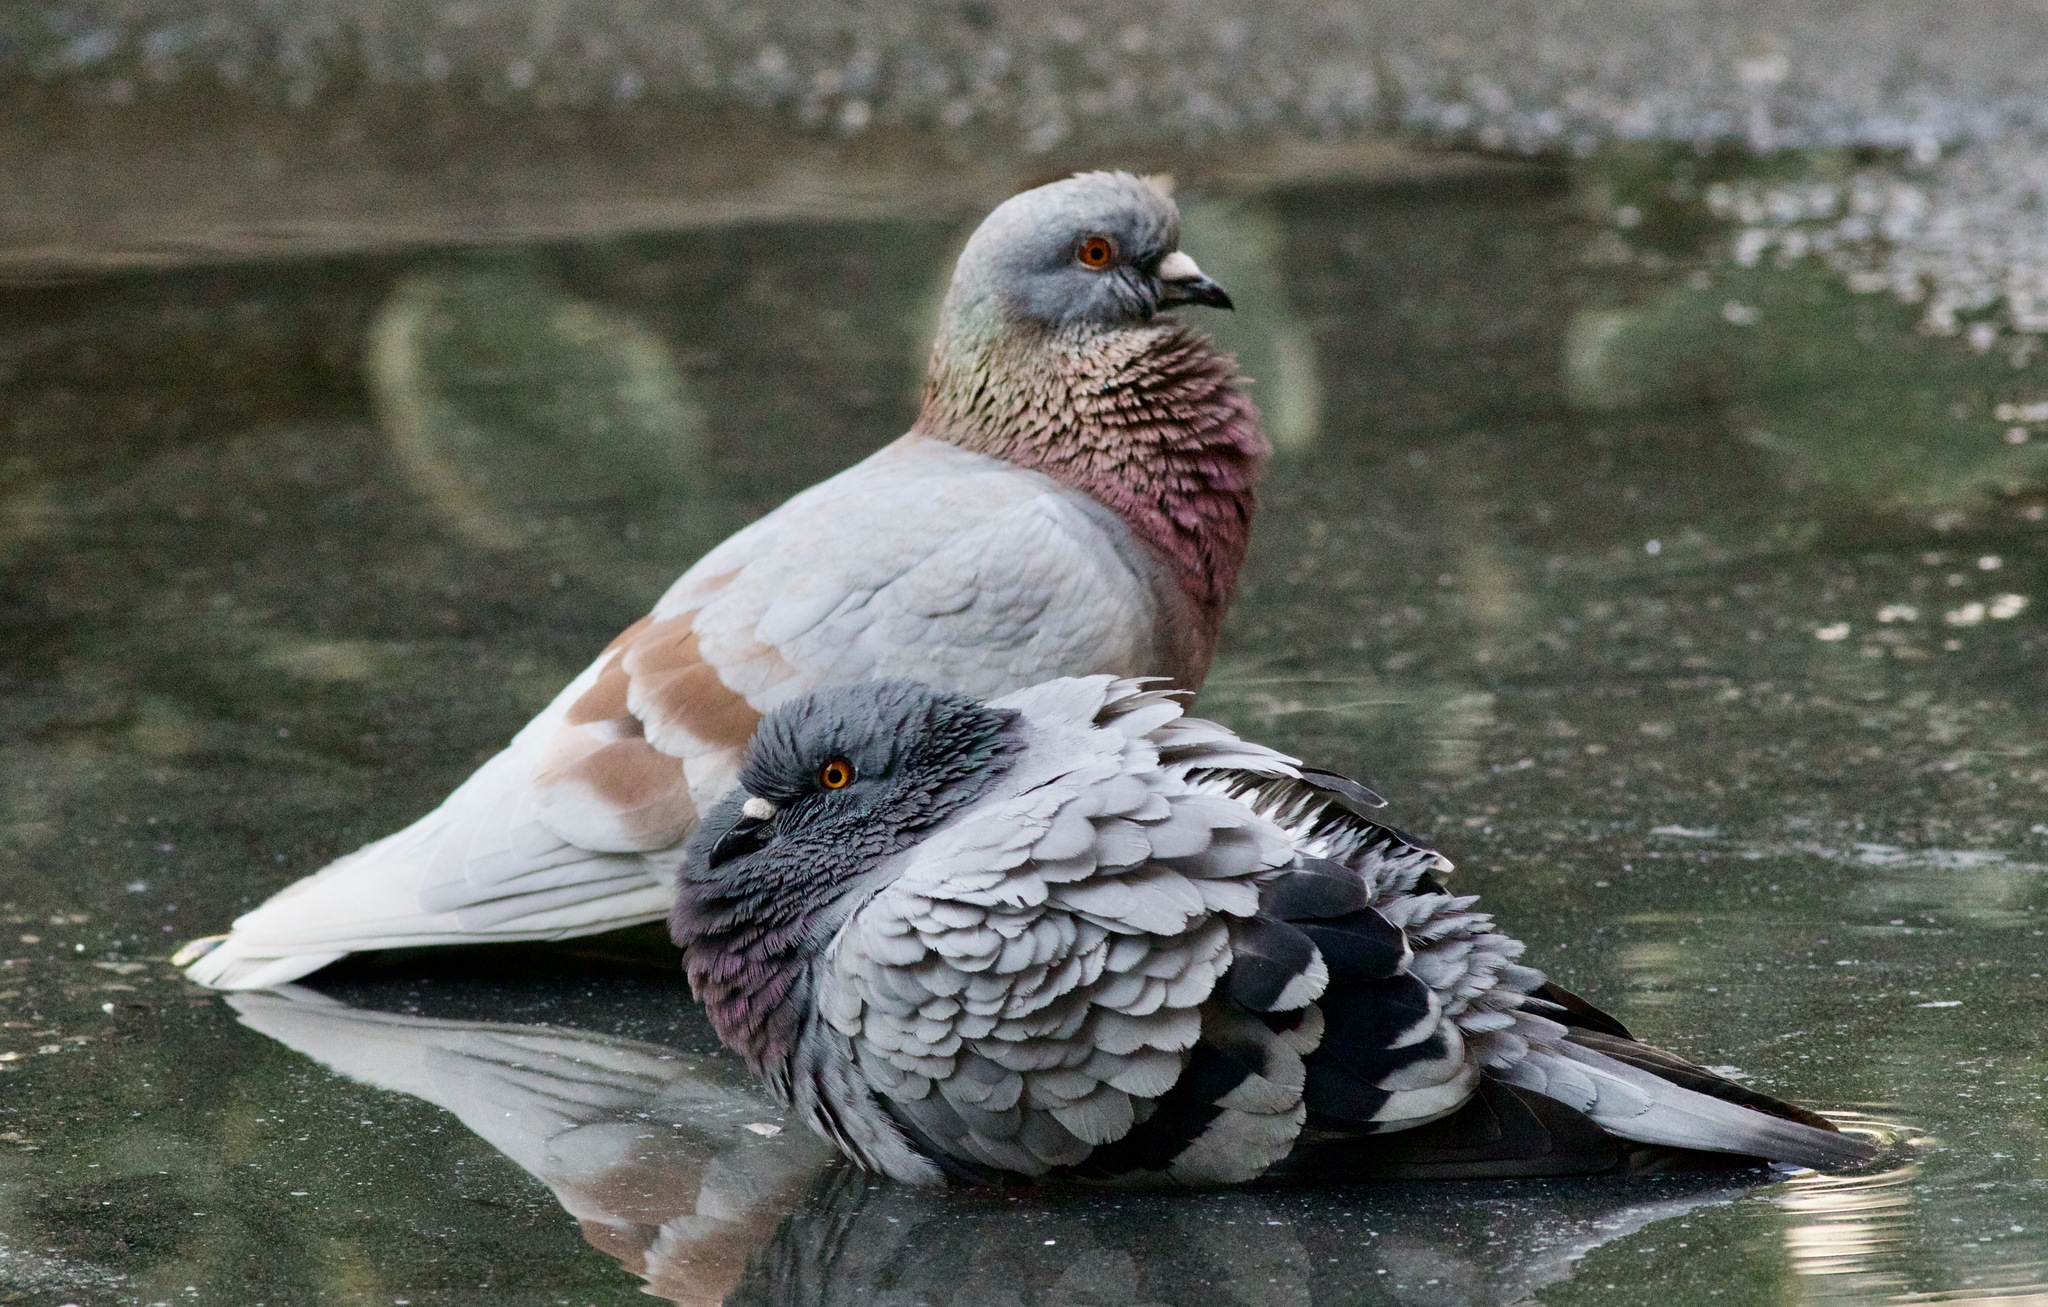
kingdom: Animalia
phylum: Chordata
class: Aves
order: Columbiformes
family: Columbidae
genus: Columba
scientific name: Columba livia
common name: Rock pigeon
